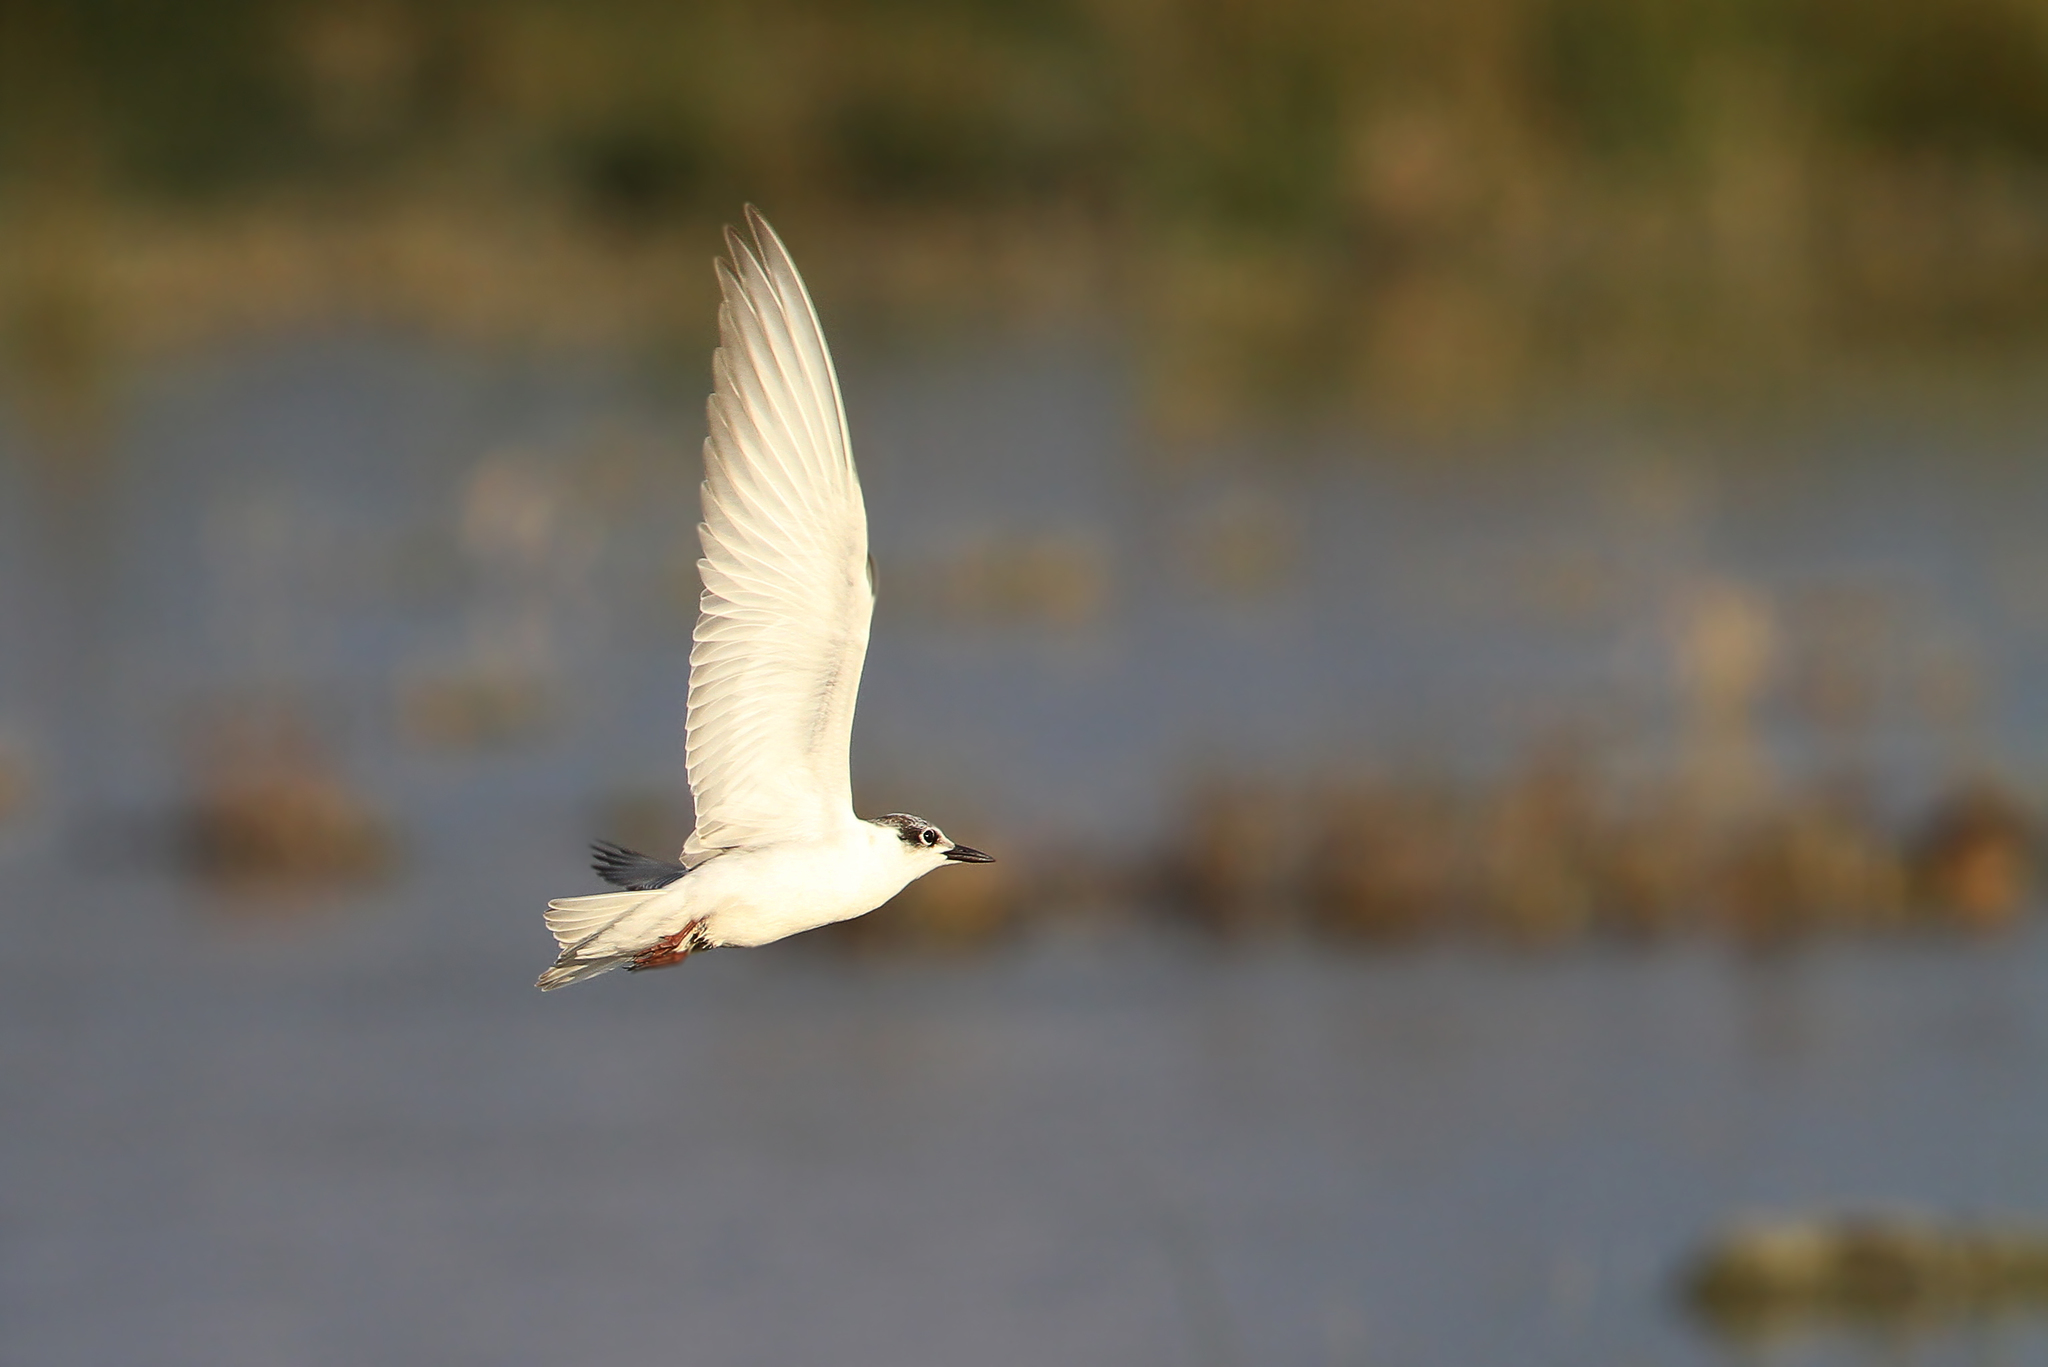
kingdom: Animalia
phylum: Chordata
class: Aves
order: Charadriiformes
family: Laridae
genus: Chlidonias
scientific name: Chlidonias hybrida
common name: Whiskered tern
